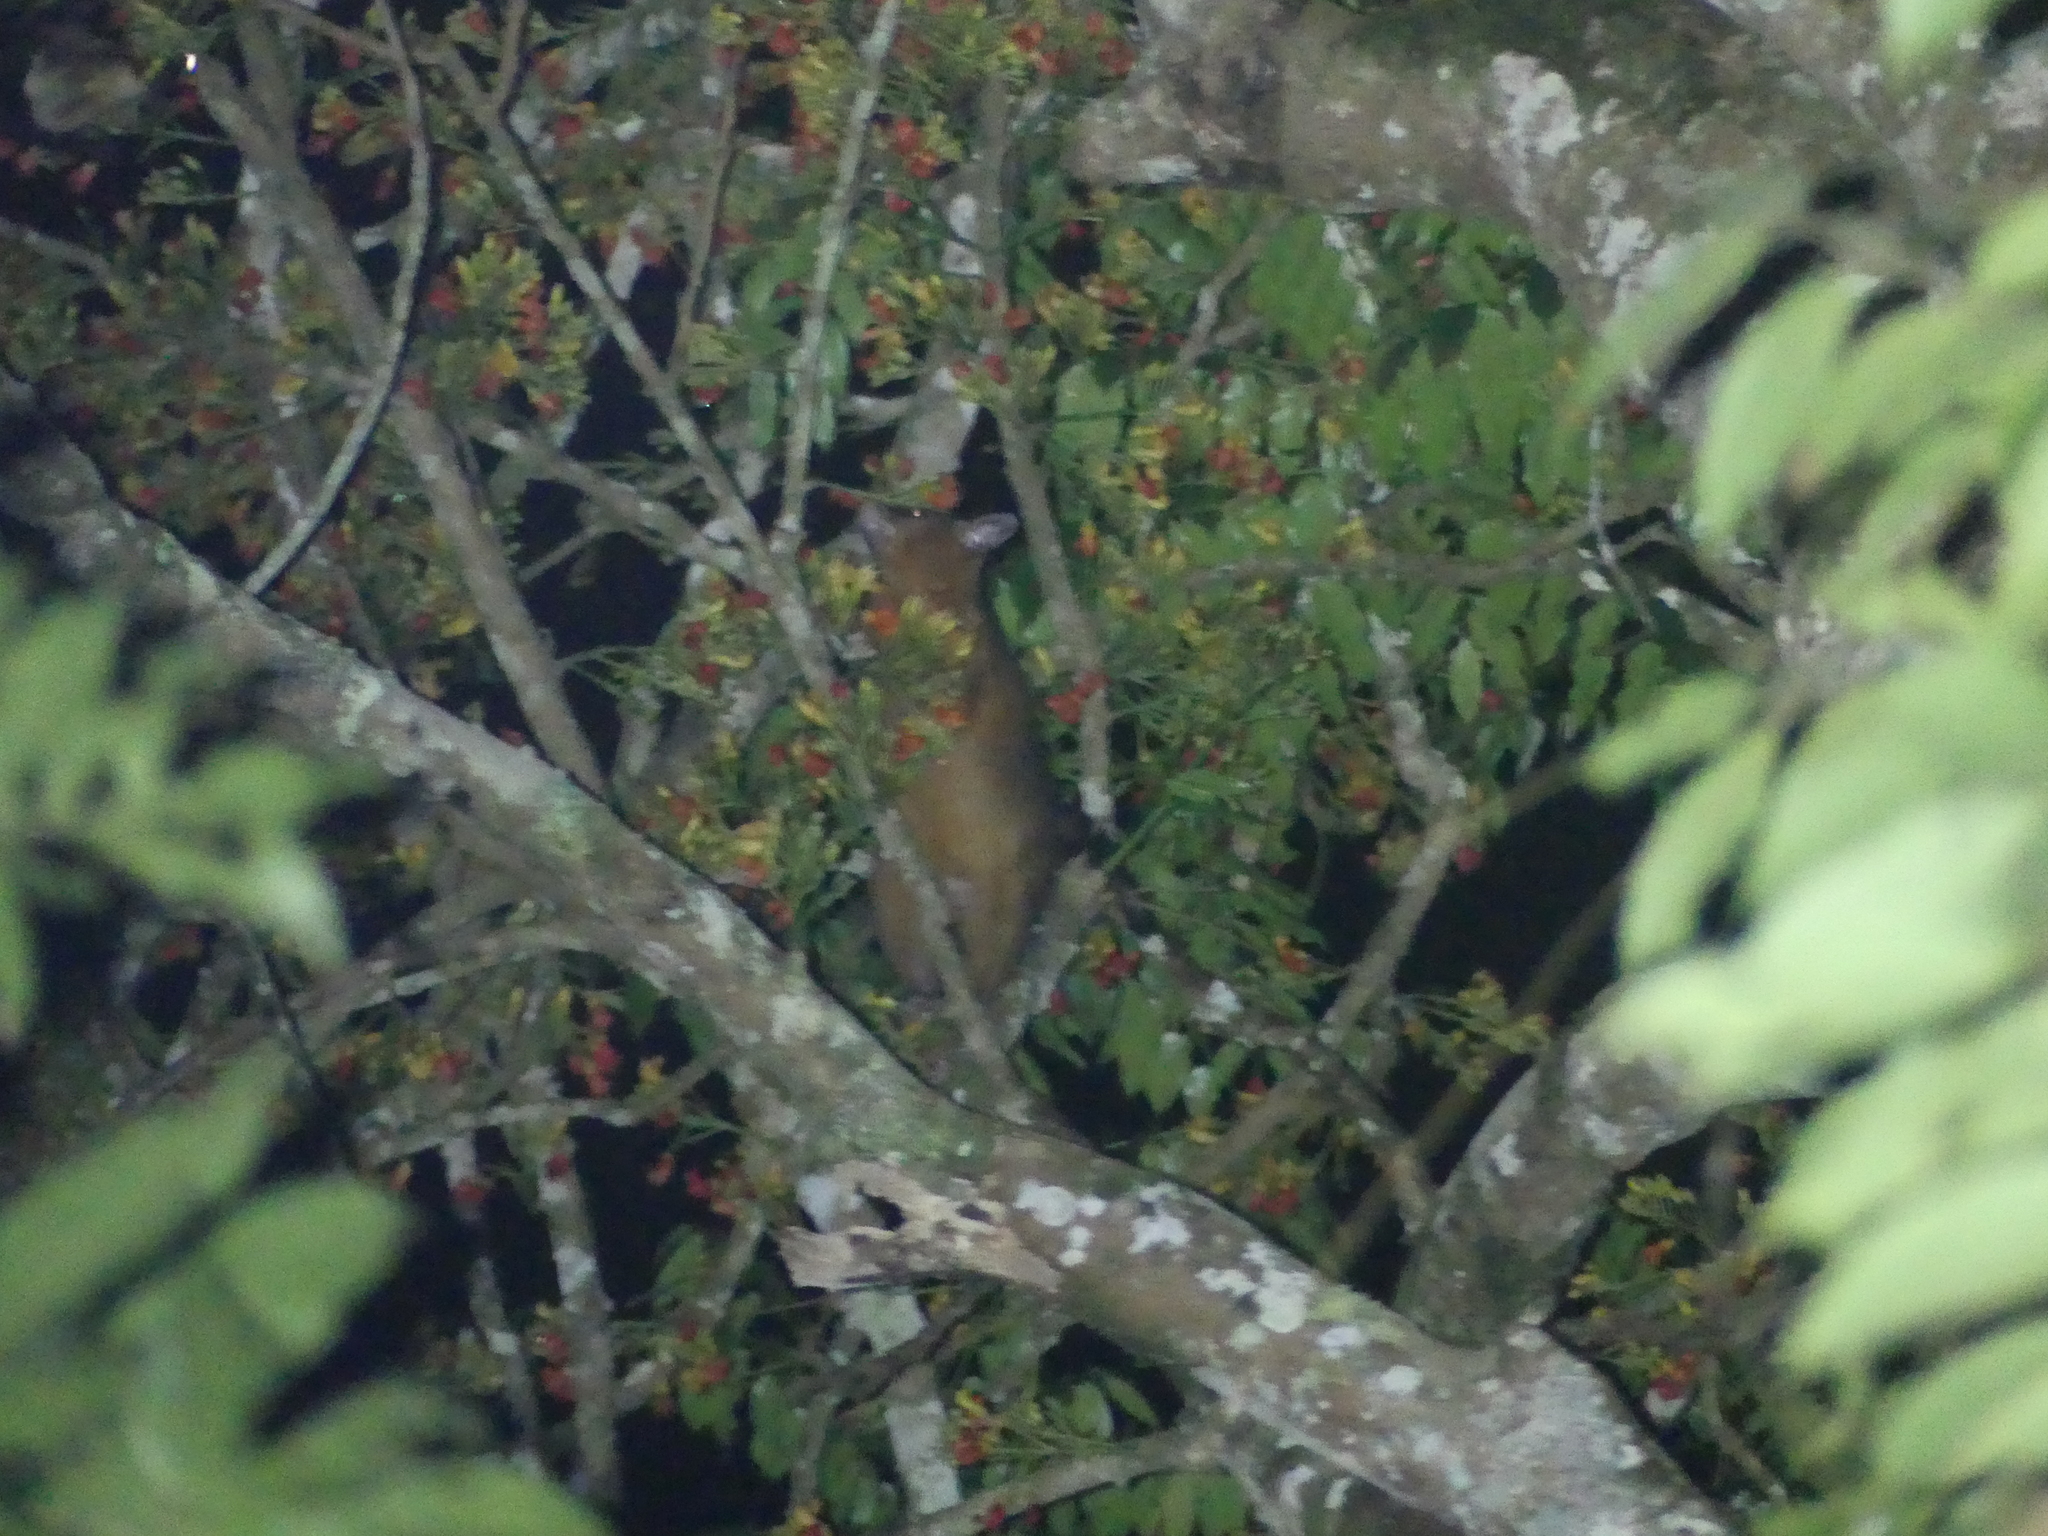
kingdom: Animalia
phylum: Chordata
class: Mammalia
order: Diprotodontia
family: Phalangeridae
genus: Trichosurus
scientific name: Trichosurus vulpecula
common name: Common brushtail
